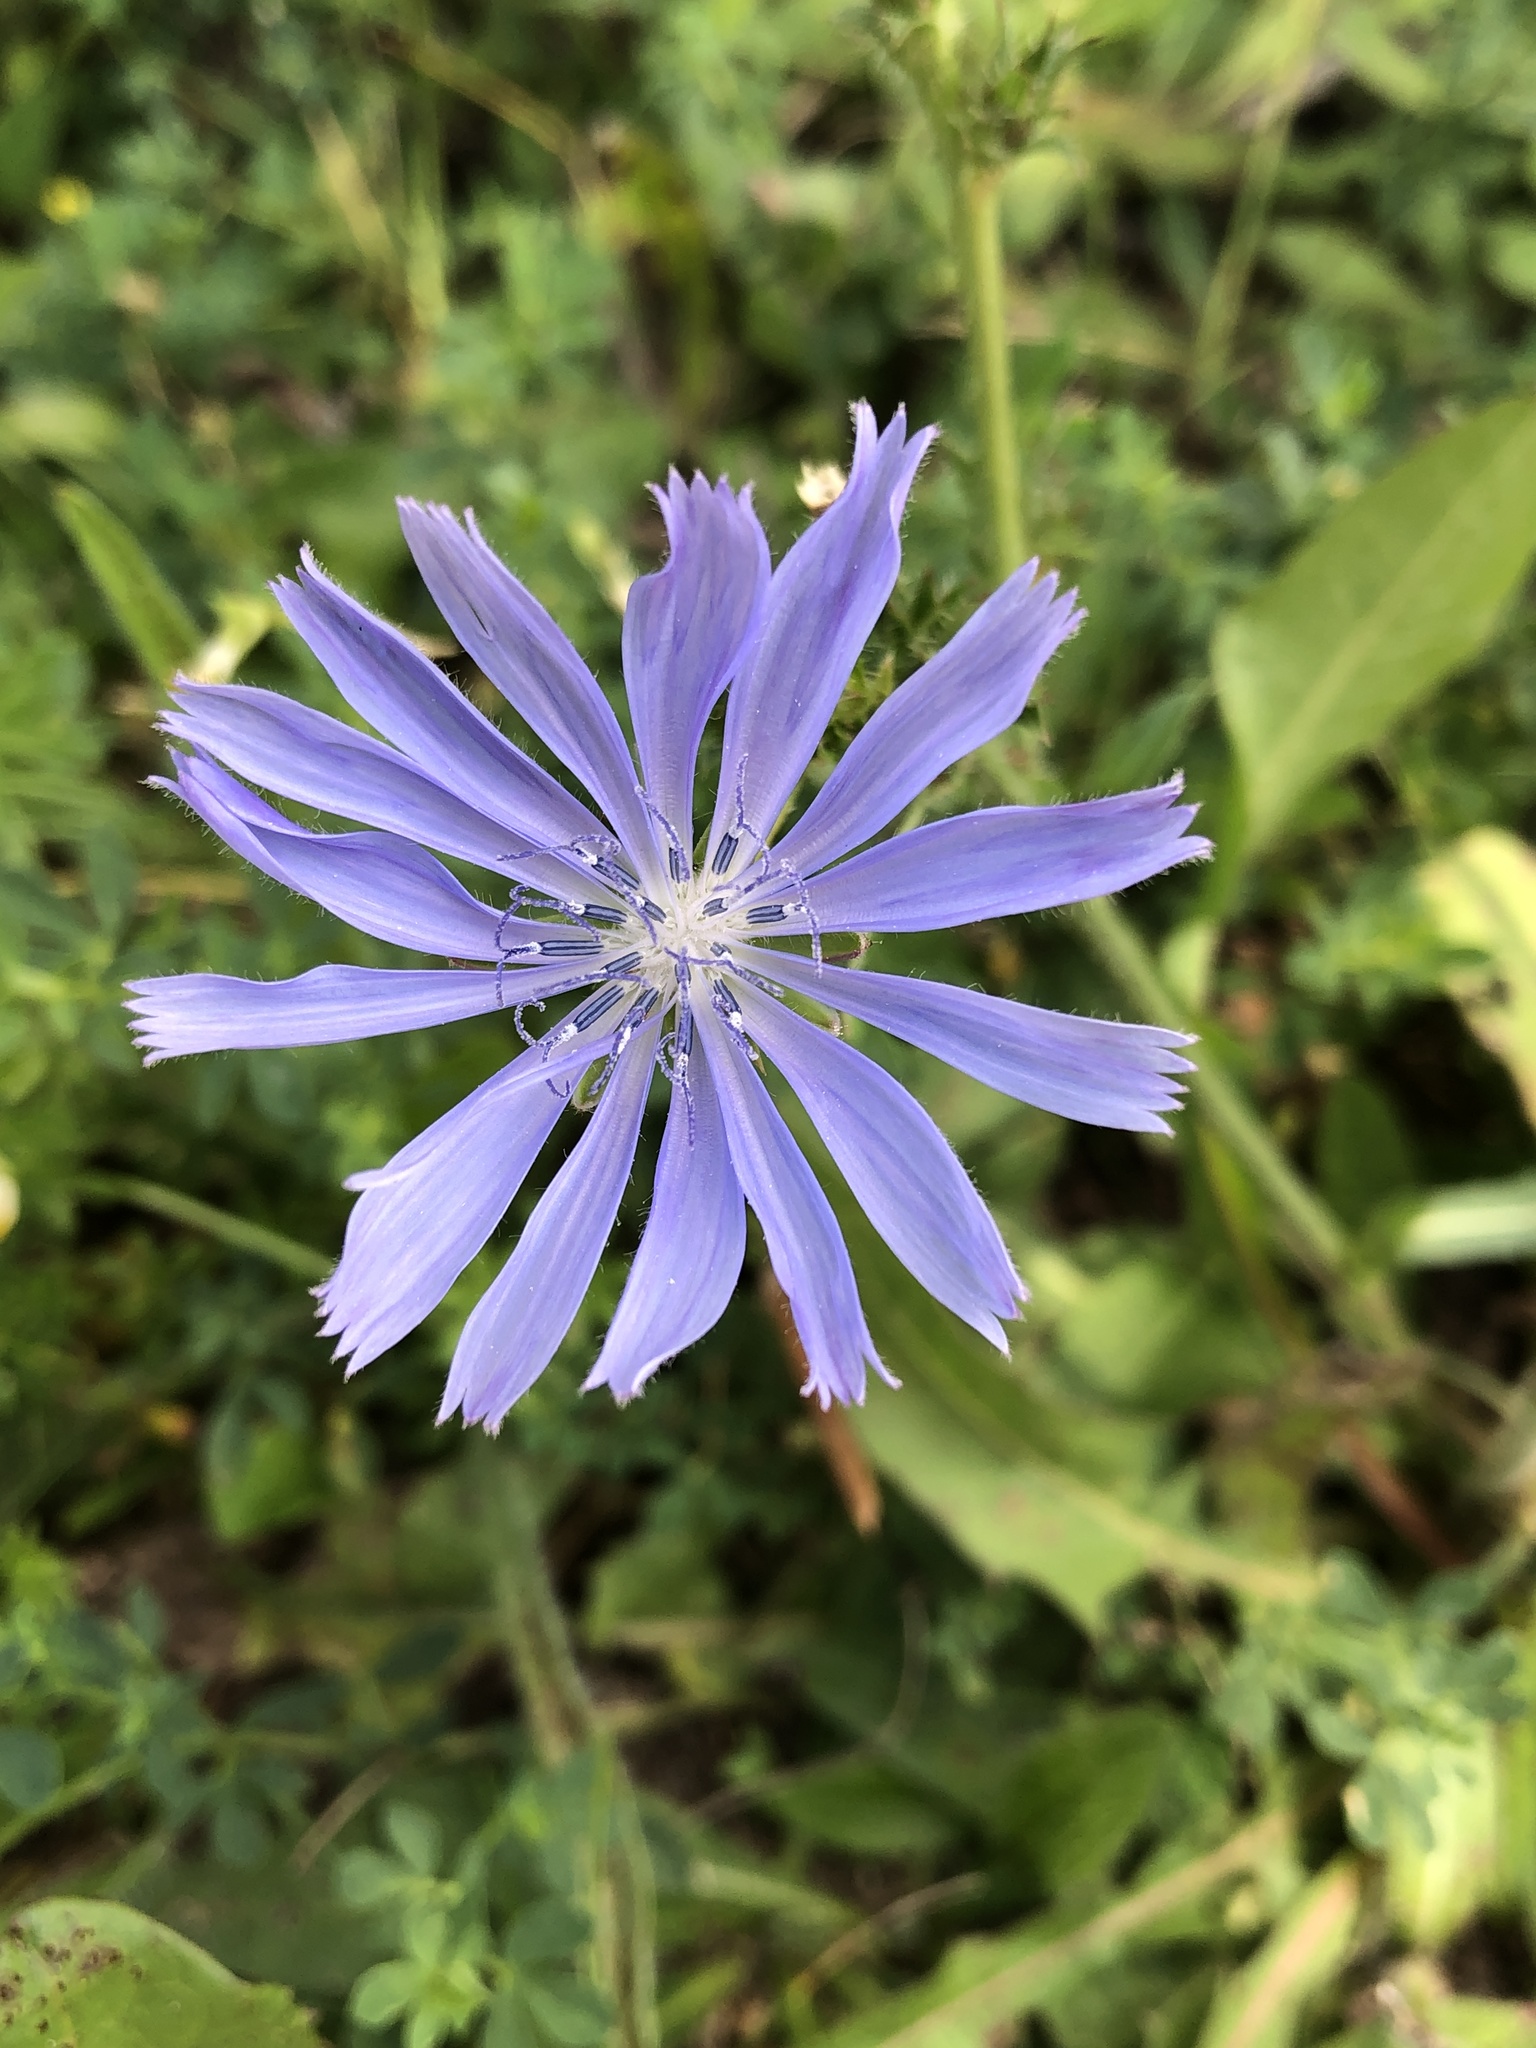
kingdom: Plantae
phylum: Tracheophyta
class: Magnoliopsida
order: Asterales
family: Asteraceae
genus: Cichorium
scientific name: Cichorium intybus
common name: Chicory
